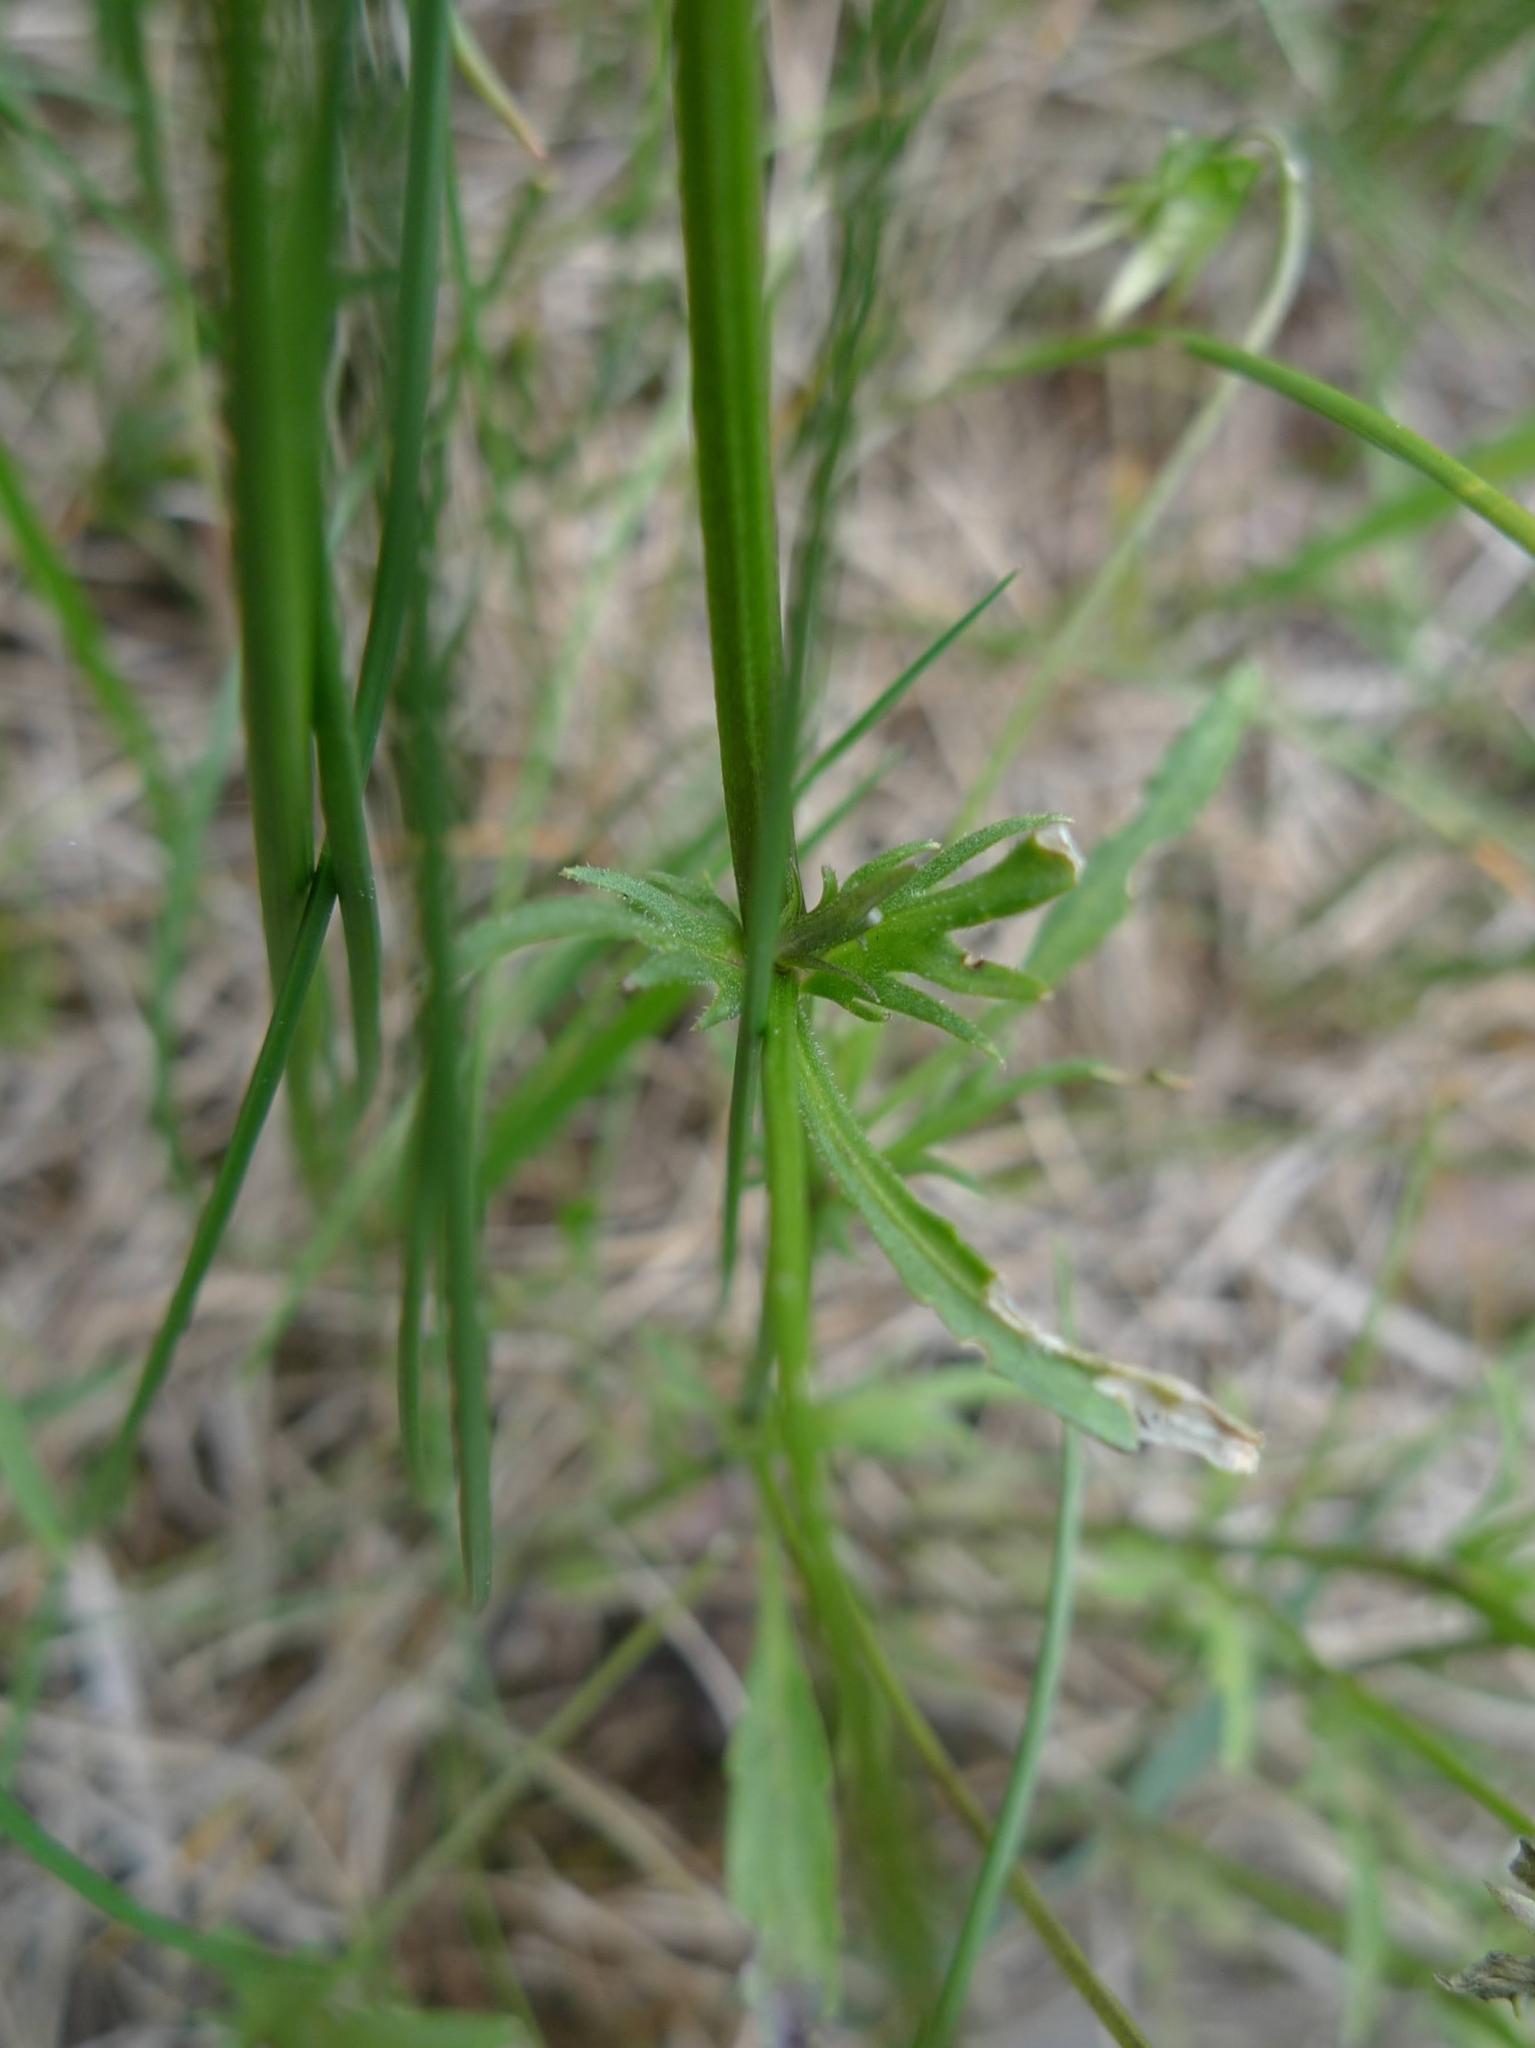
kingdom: Plantae
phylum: Tracheophyta
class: Magnoliopsida
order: Malpighiales
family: Violaceae
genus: Viola
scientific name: Viola arvensis
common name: Field pansy
